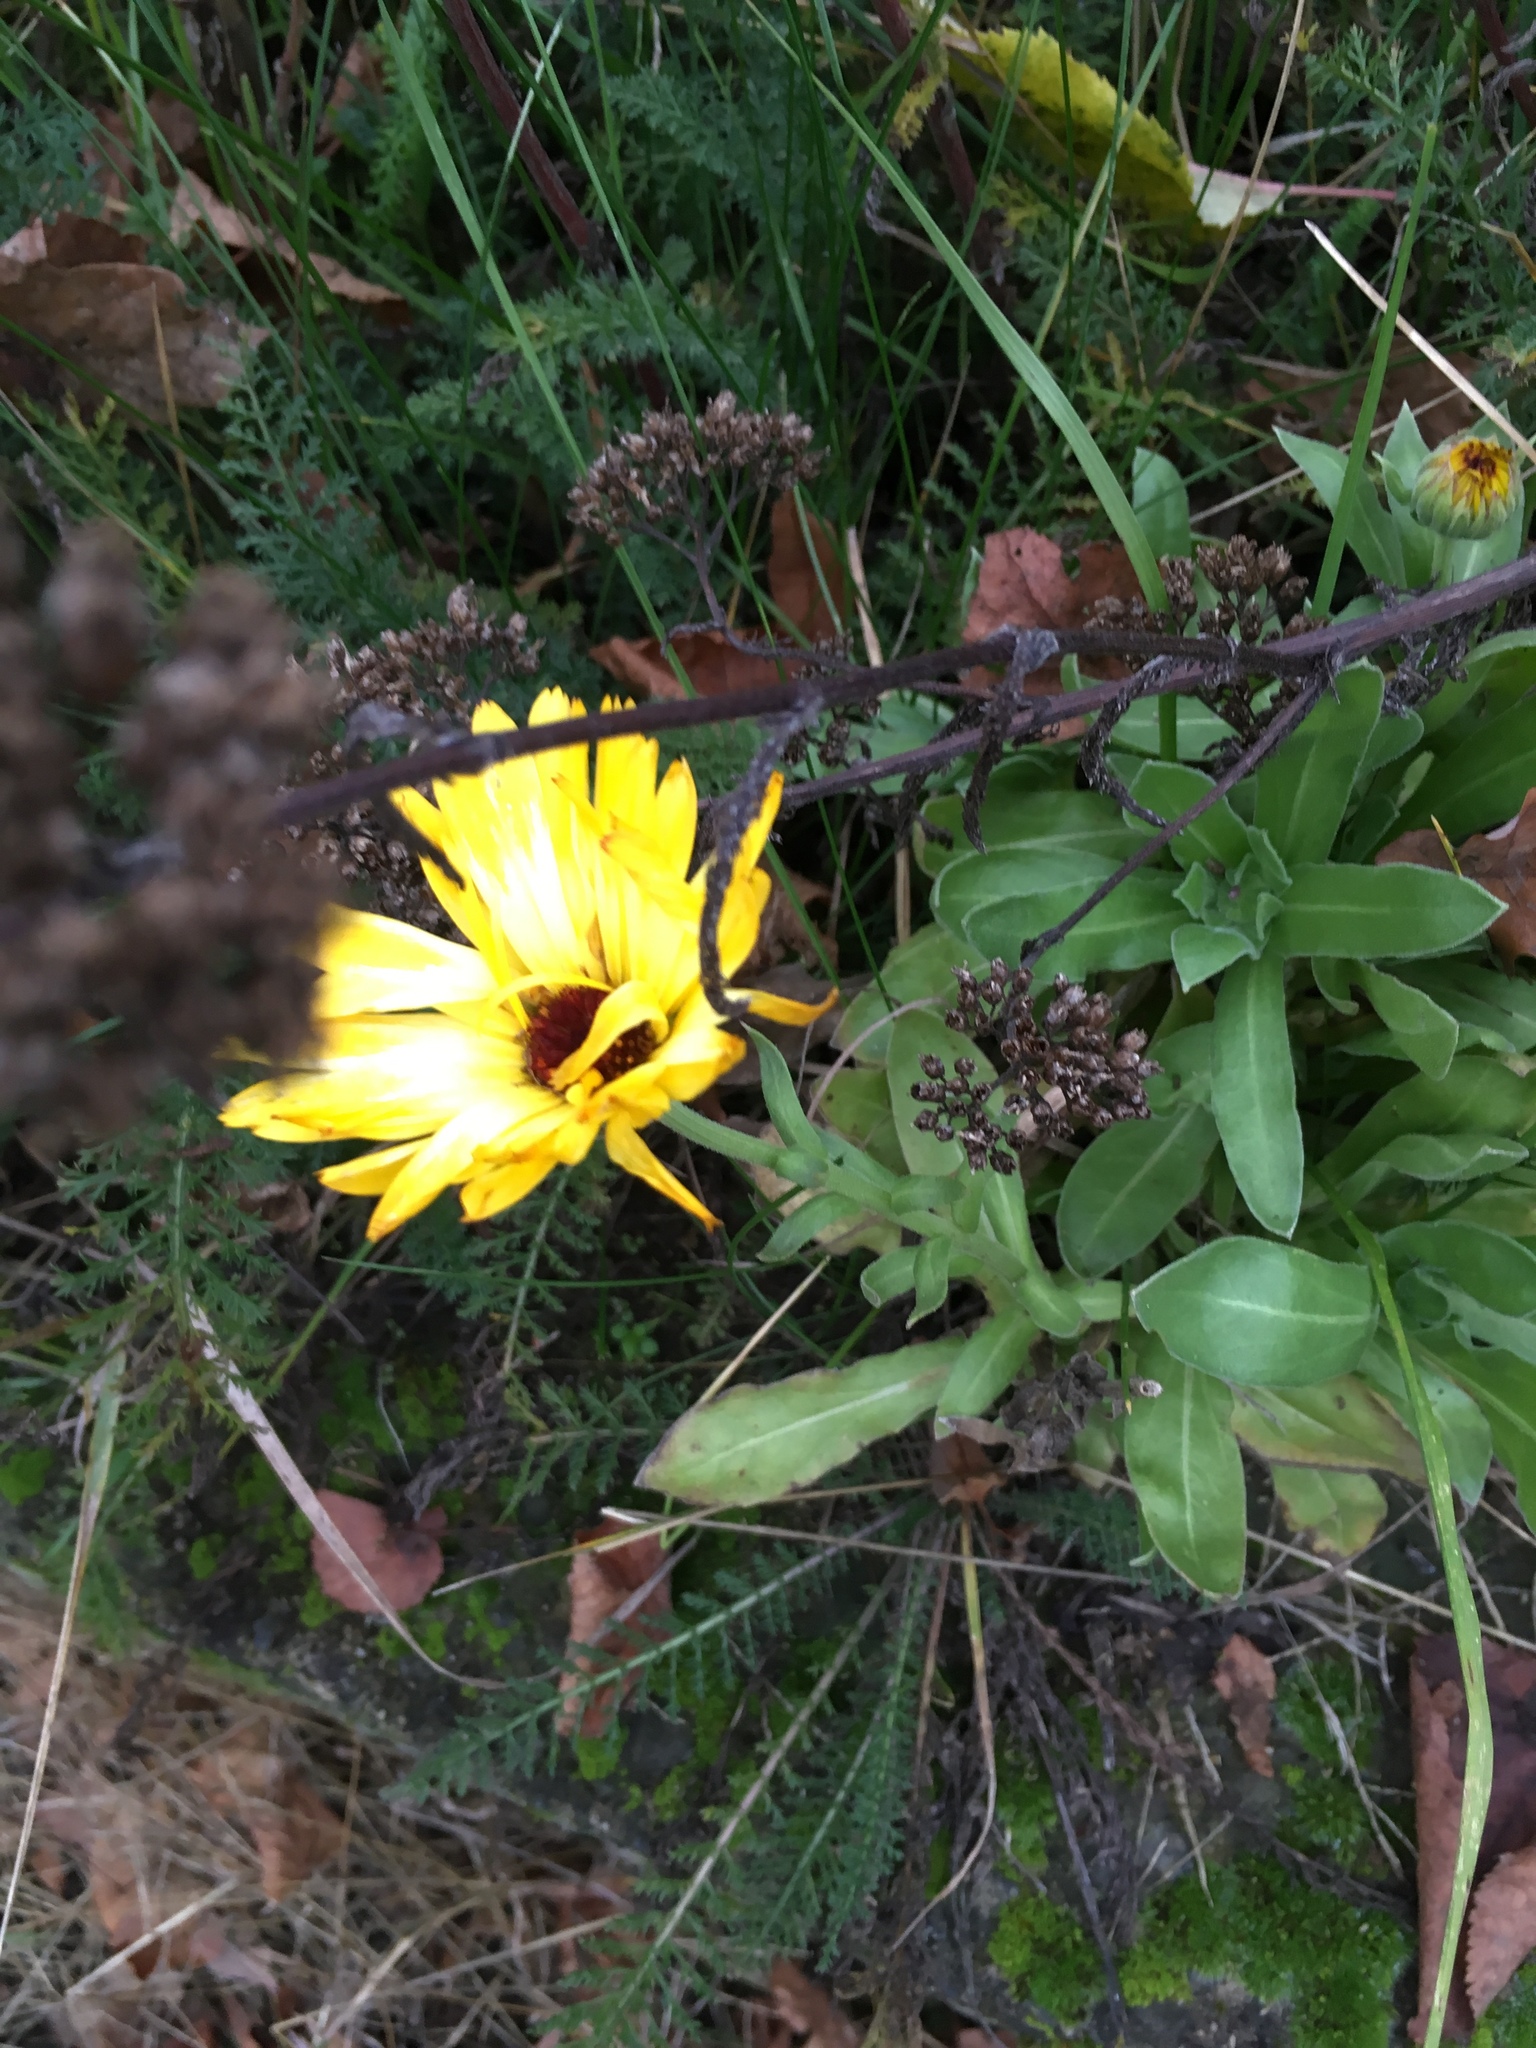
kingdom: Plantae
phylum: Tracheophyta
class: Magnoliopsida
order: Asterales
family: Asteraceae
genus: Calendula
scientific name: Calendula officinalis
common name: Pot marigold
